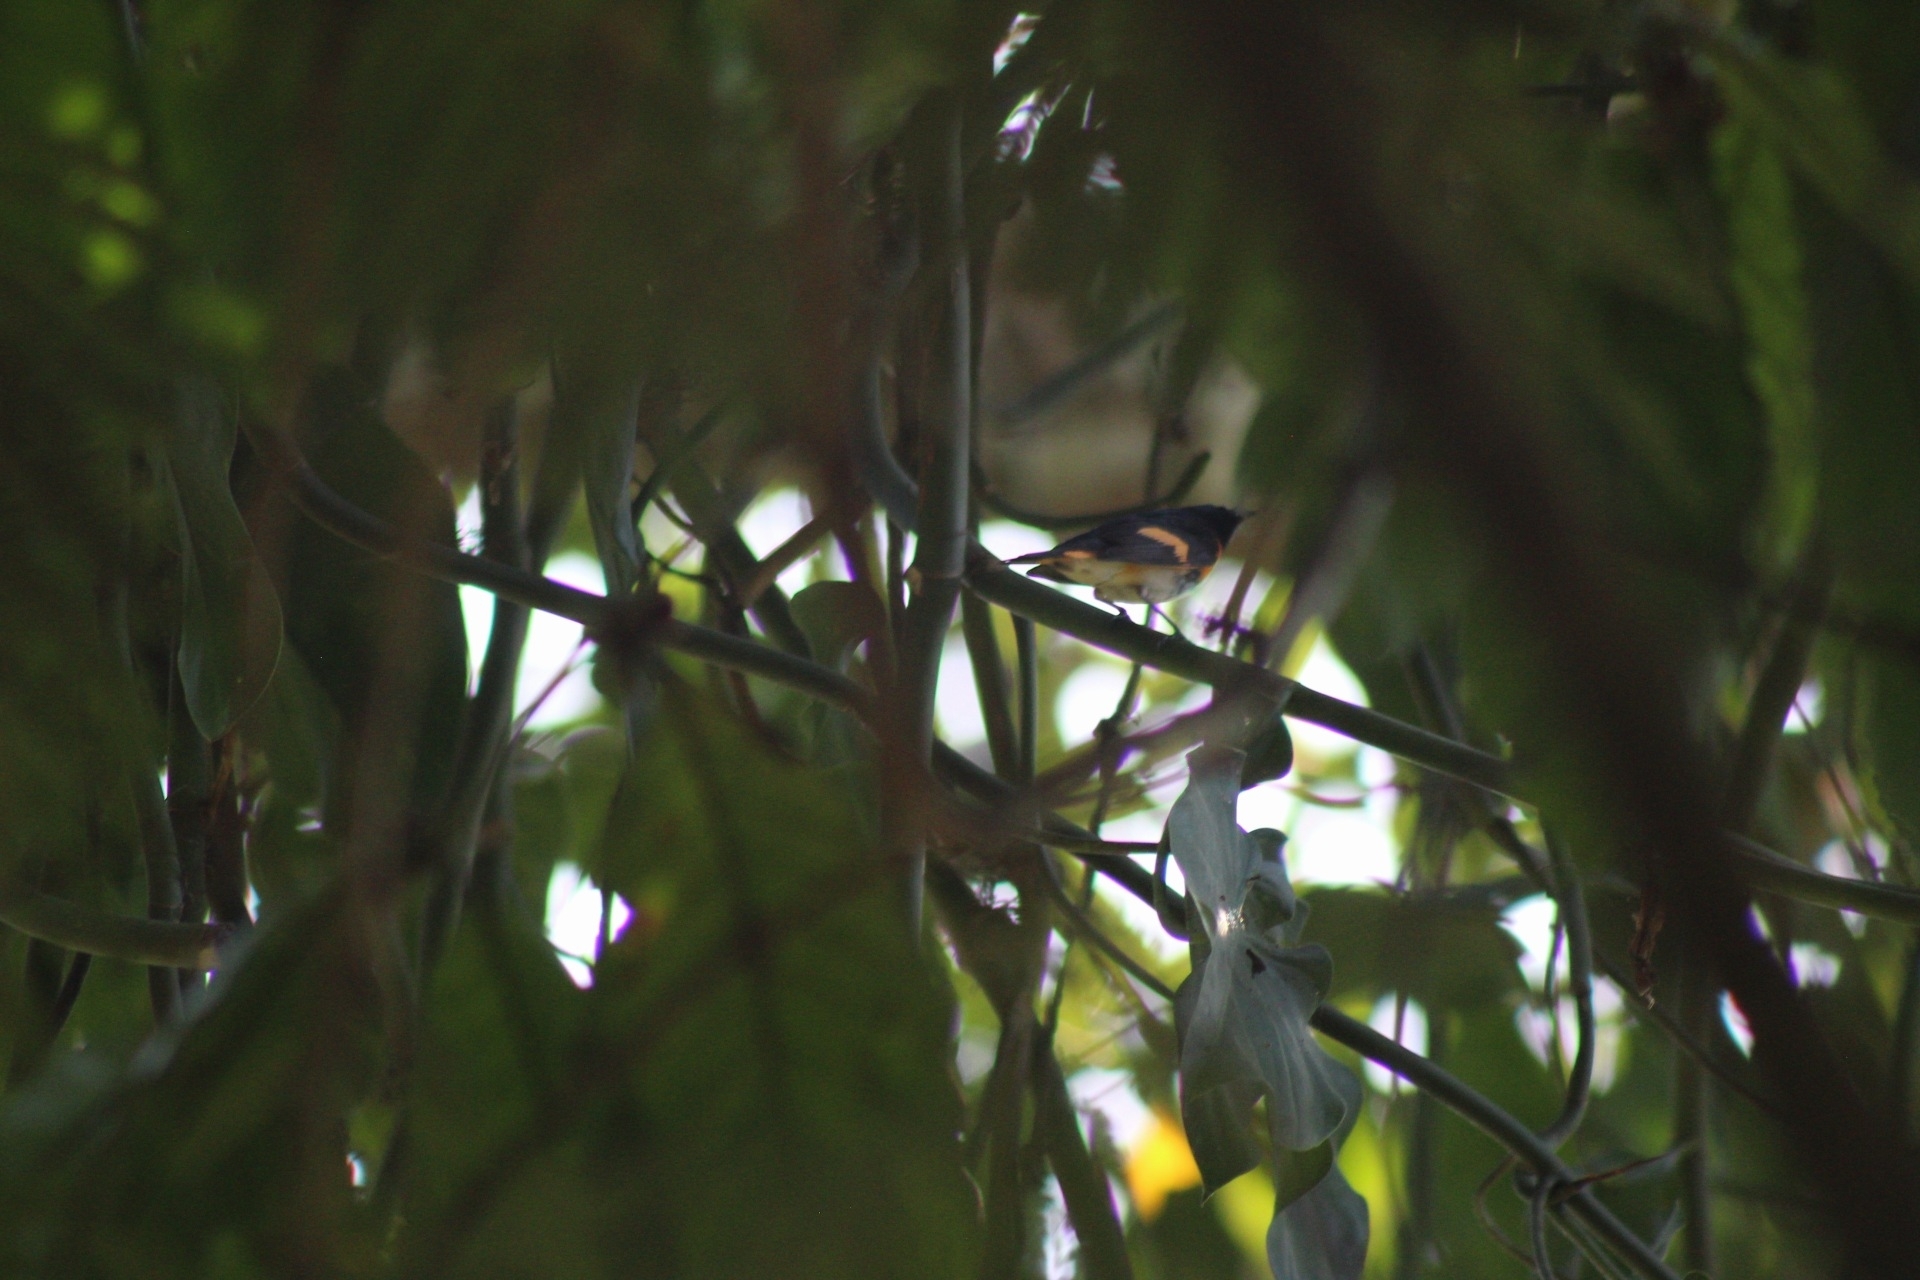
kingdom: Animalia
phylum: Chordata
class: Aves
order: Passeriformes
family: Parulidae
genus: Setophaga
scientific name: Setophaga ruticilla
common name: American redstart
